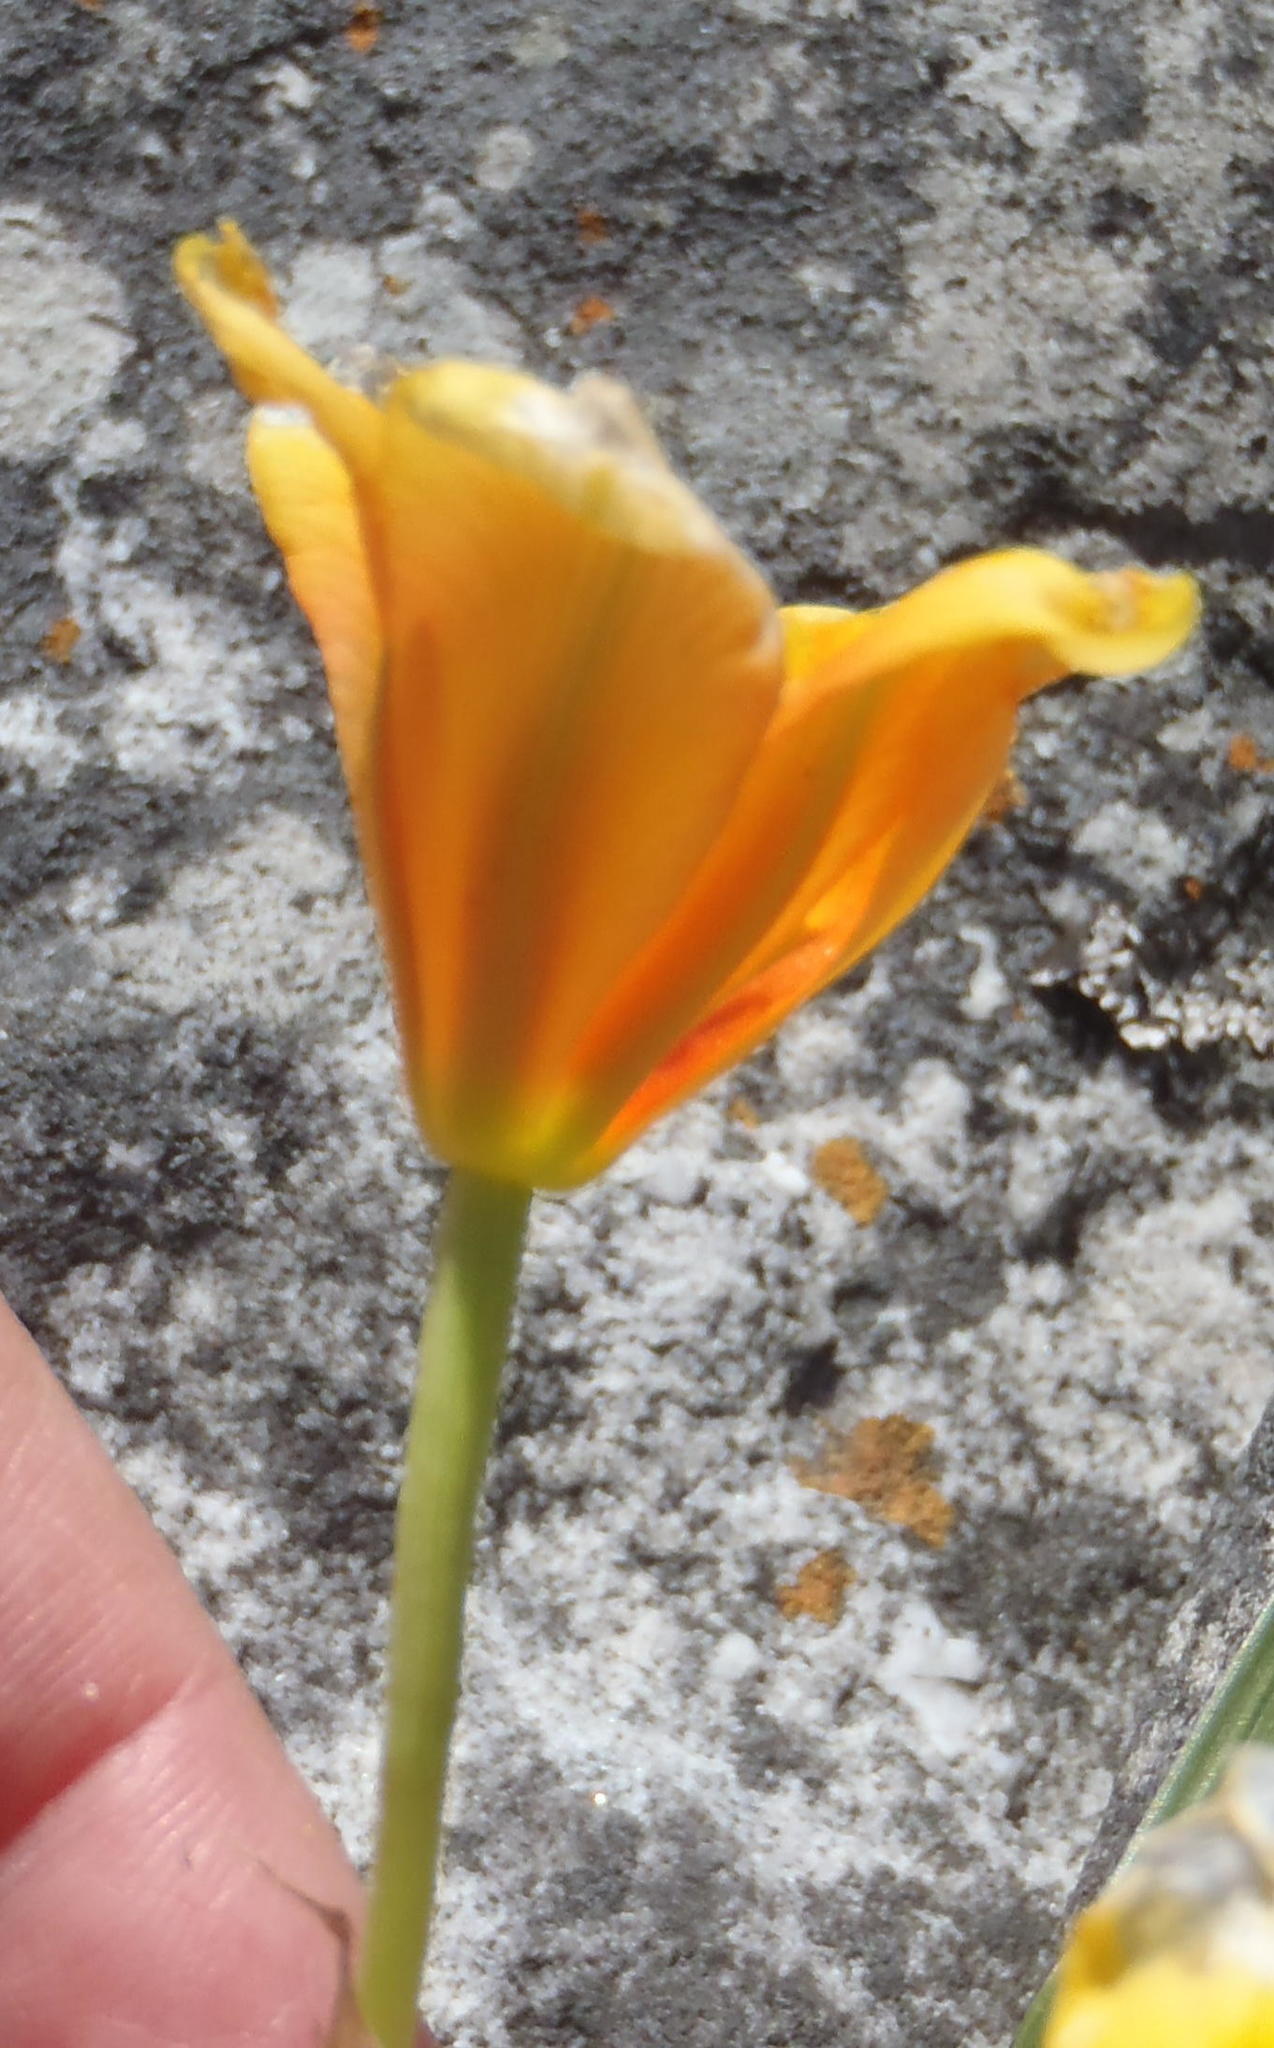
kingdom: Plantae
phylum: Tracheophyta
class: Liliopsida
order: Asparagales
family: Iridaceae
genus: Moraea
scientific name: Moraea ochroleuca
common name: Red tulp
